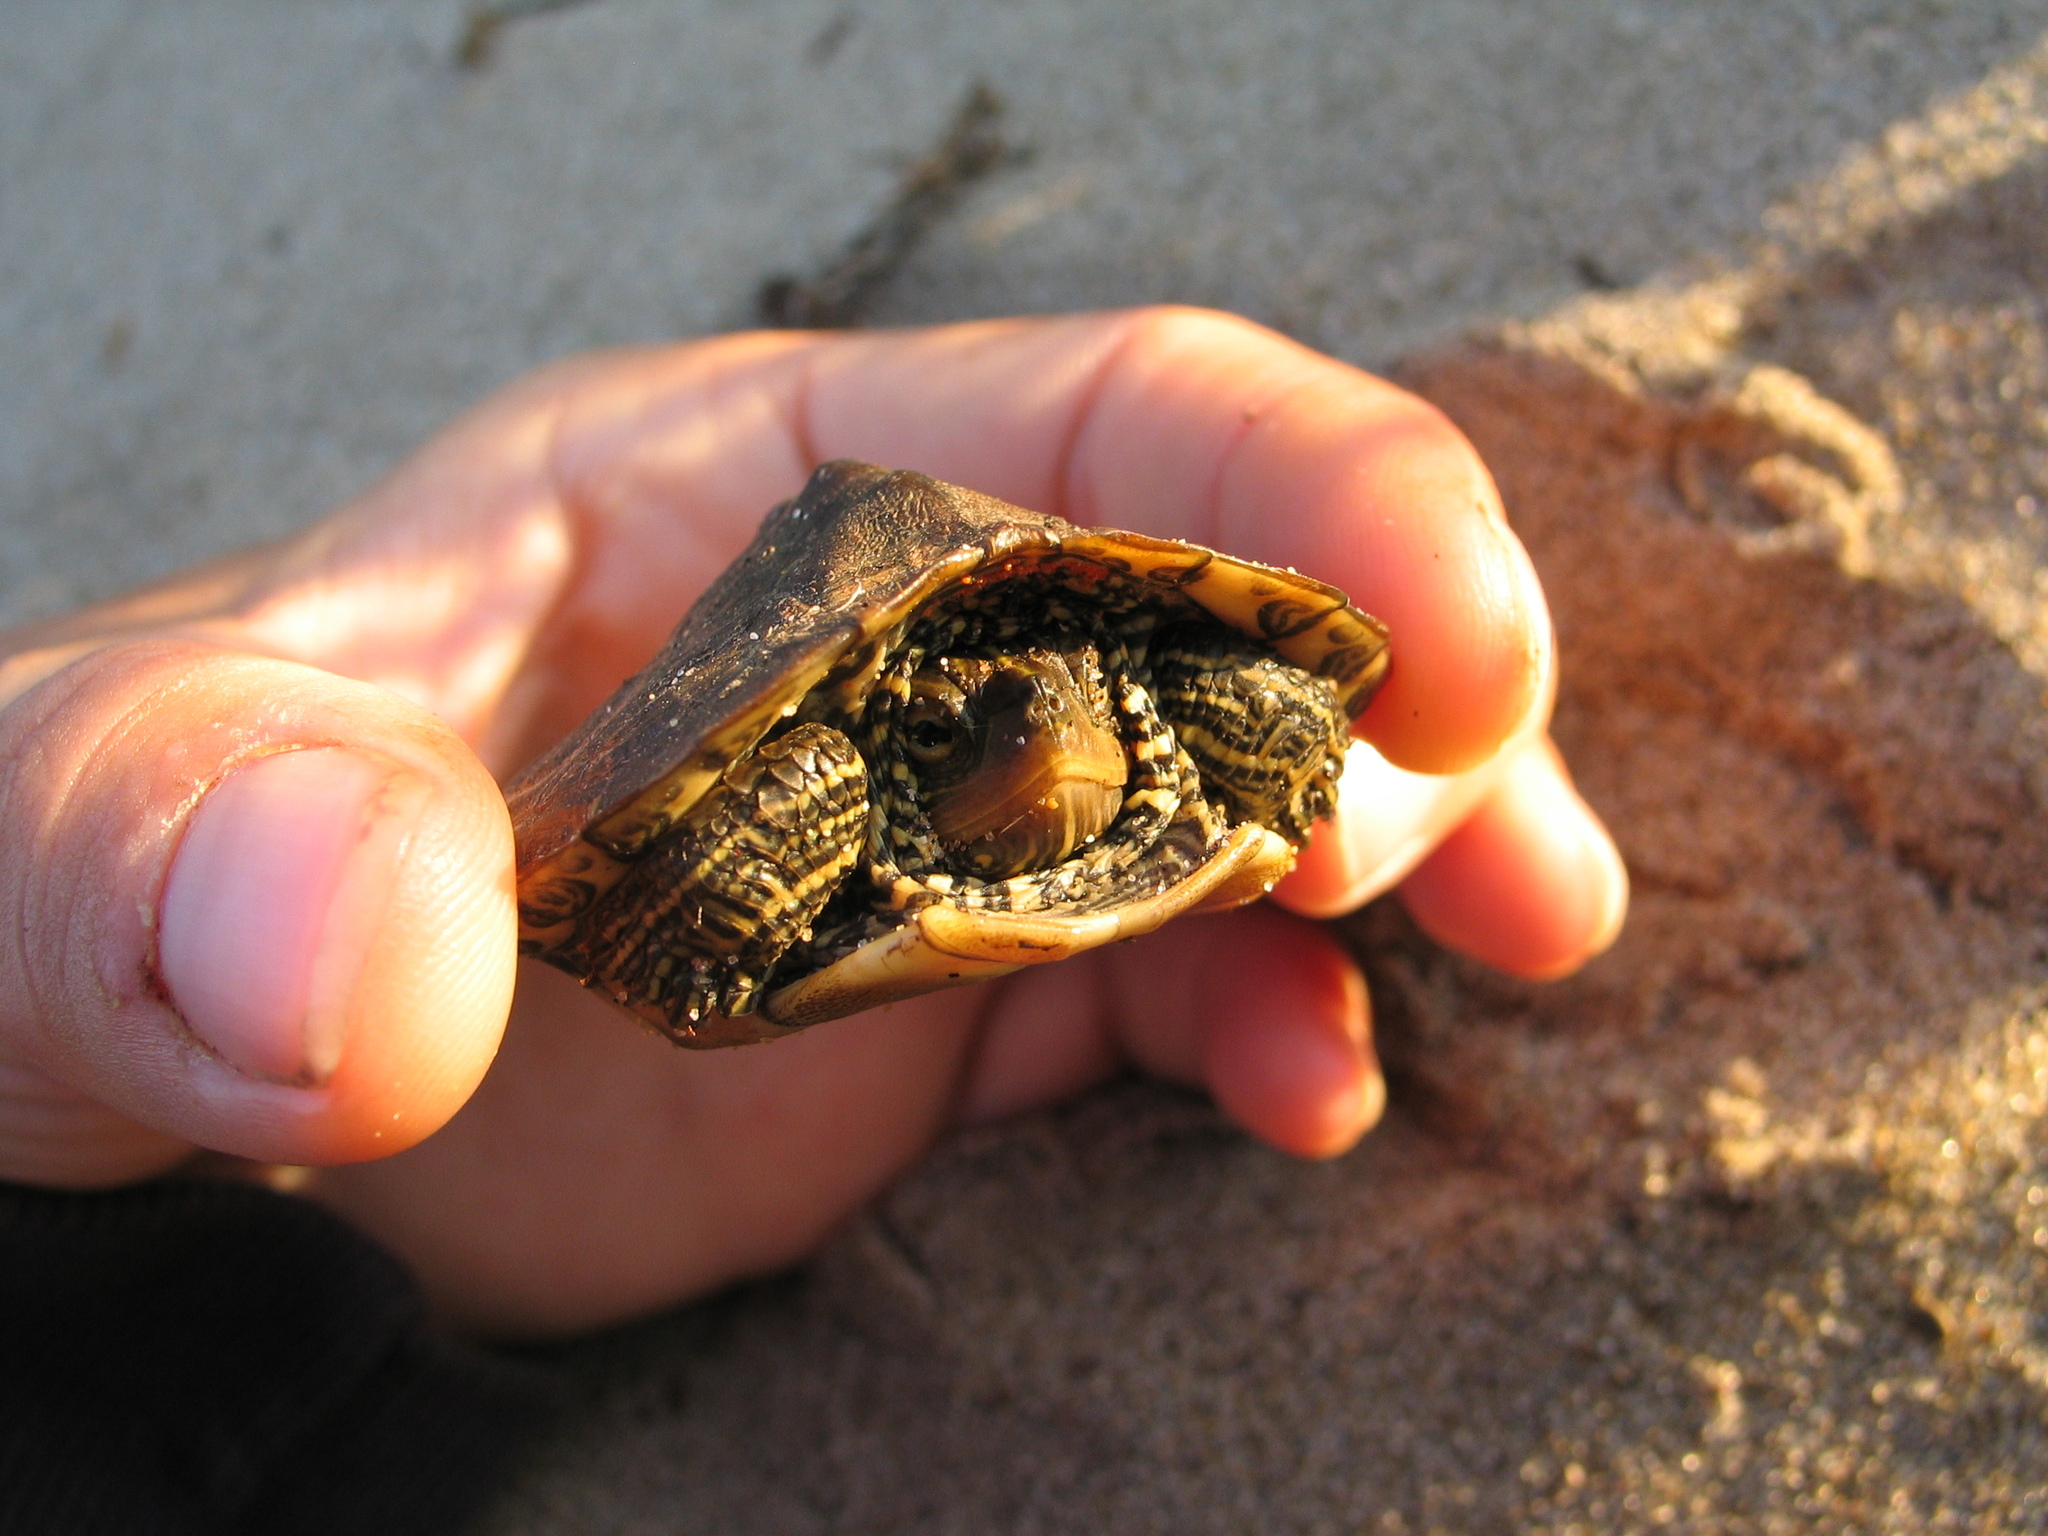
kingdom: Animalia
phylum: Chordata
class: Testudines
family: Emydidae
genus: Graptemys
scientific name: Graptemys geographica
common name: Common map turtle
